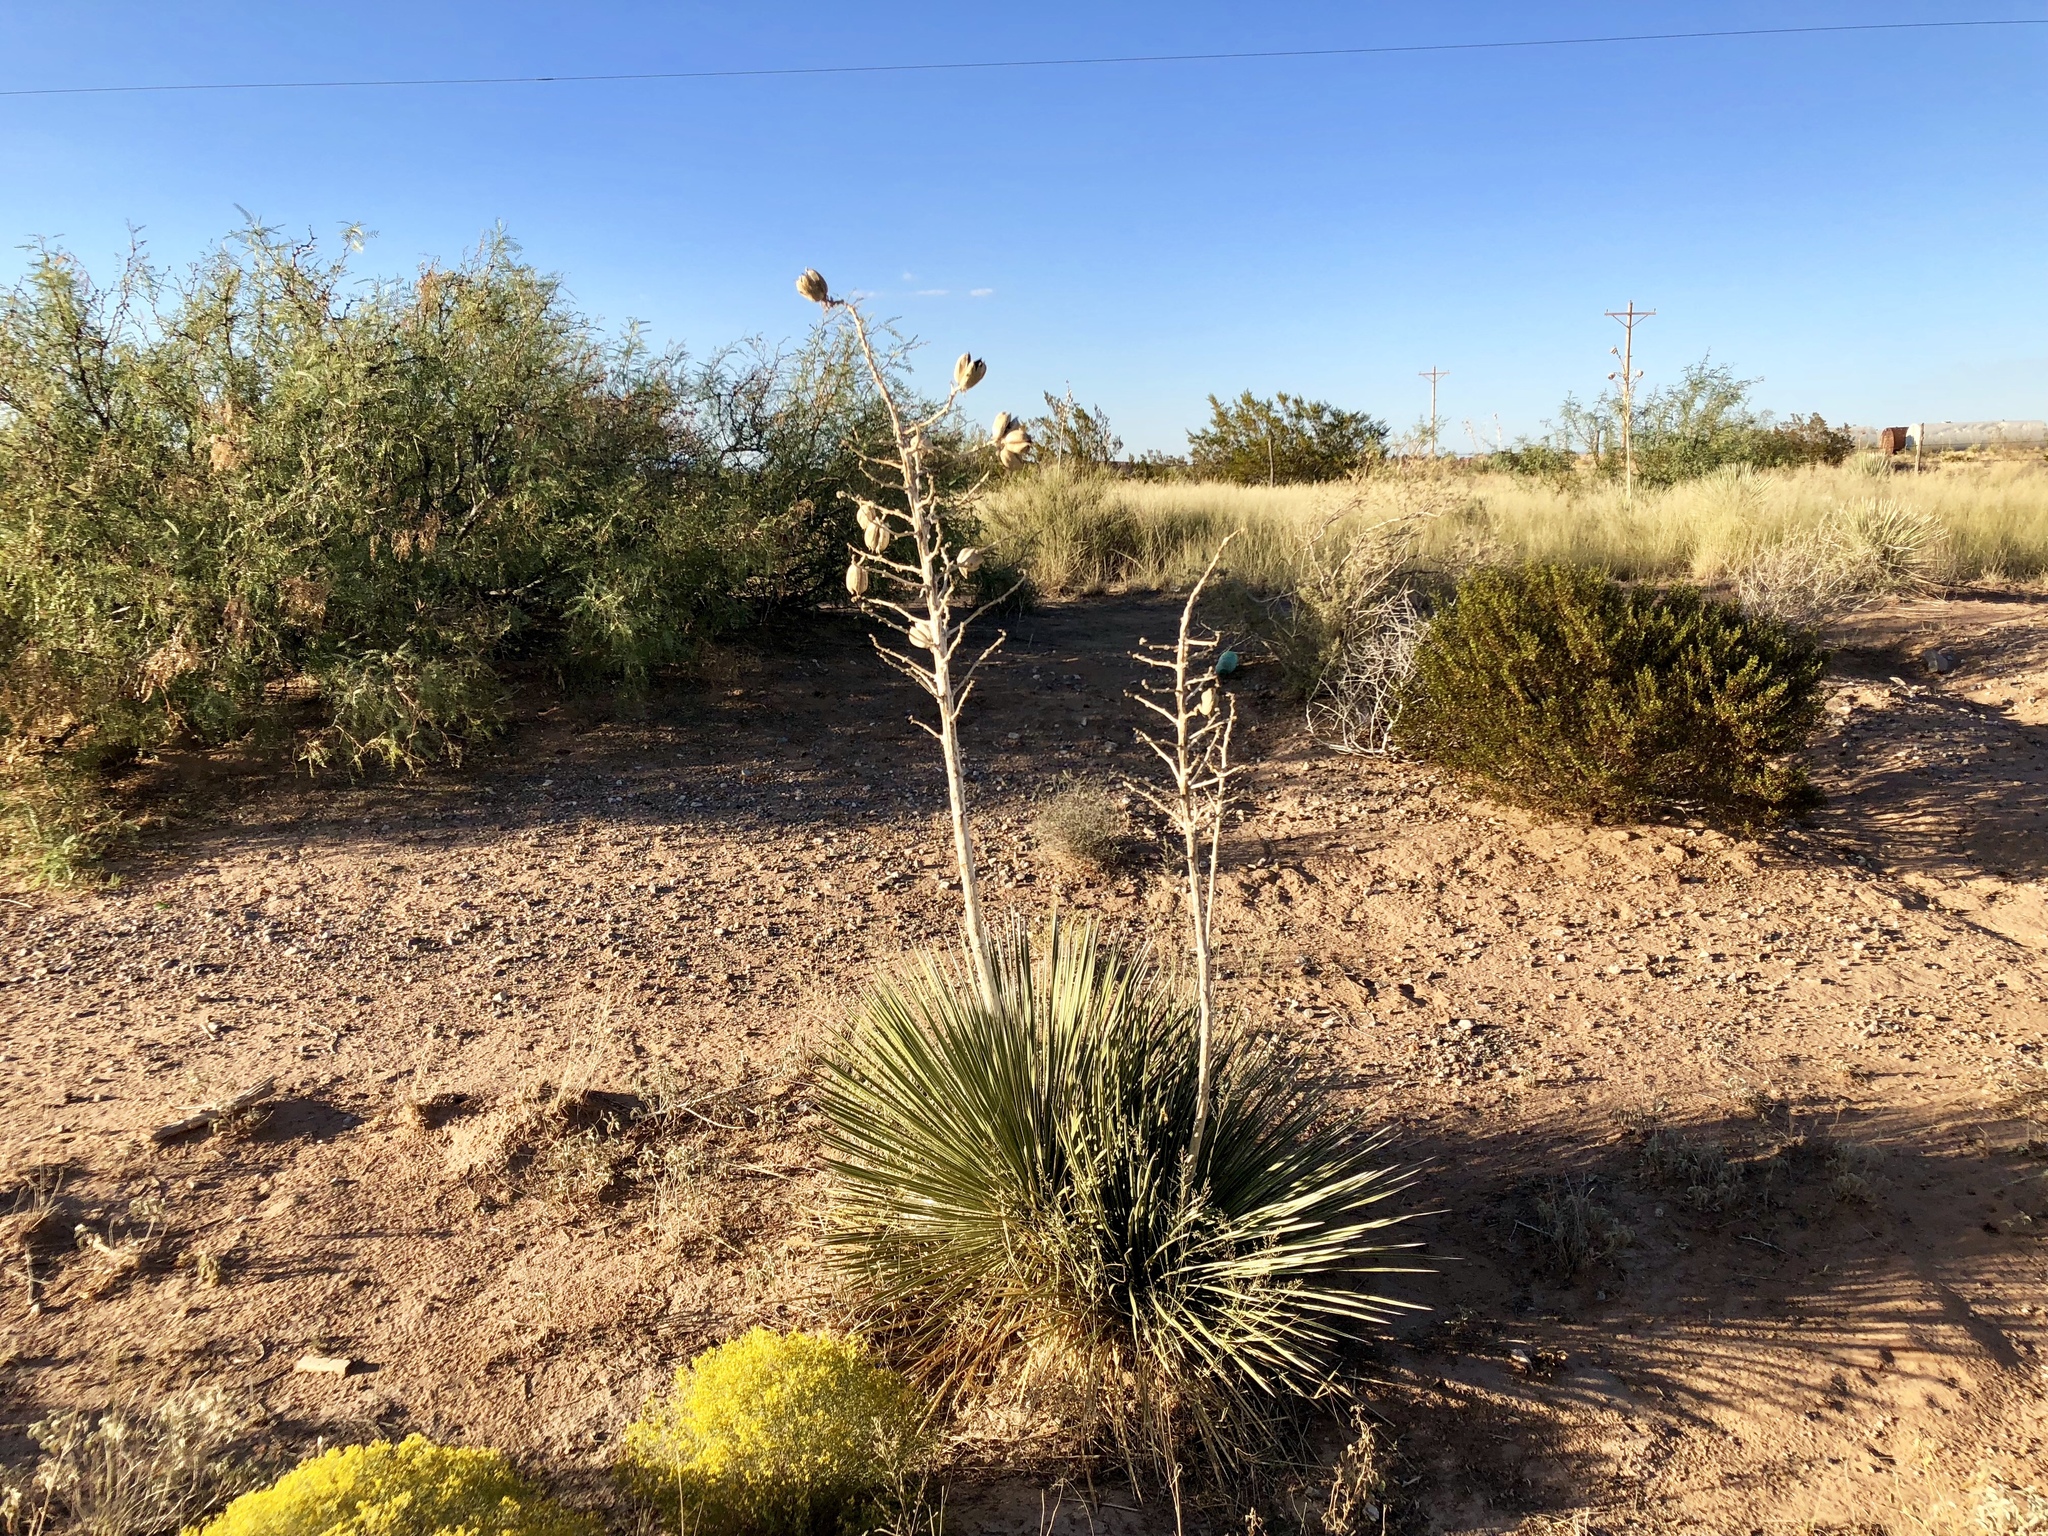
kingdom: Plantae
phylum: Tracheophyta
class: Liliopsida
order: Asparagales
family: Asparagaceae
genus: Yucca
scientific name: Yucca elata
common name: Palmella
